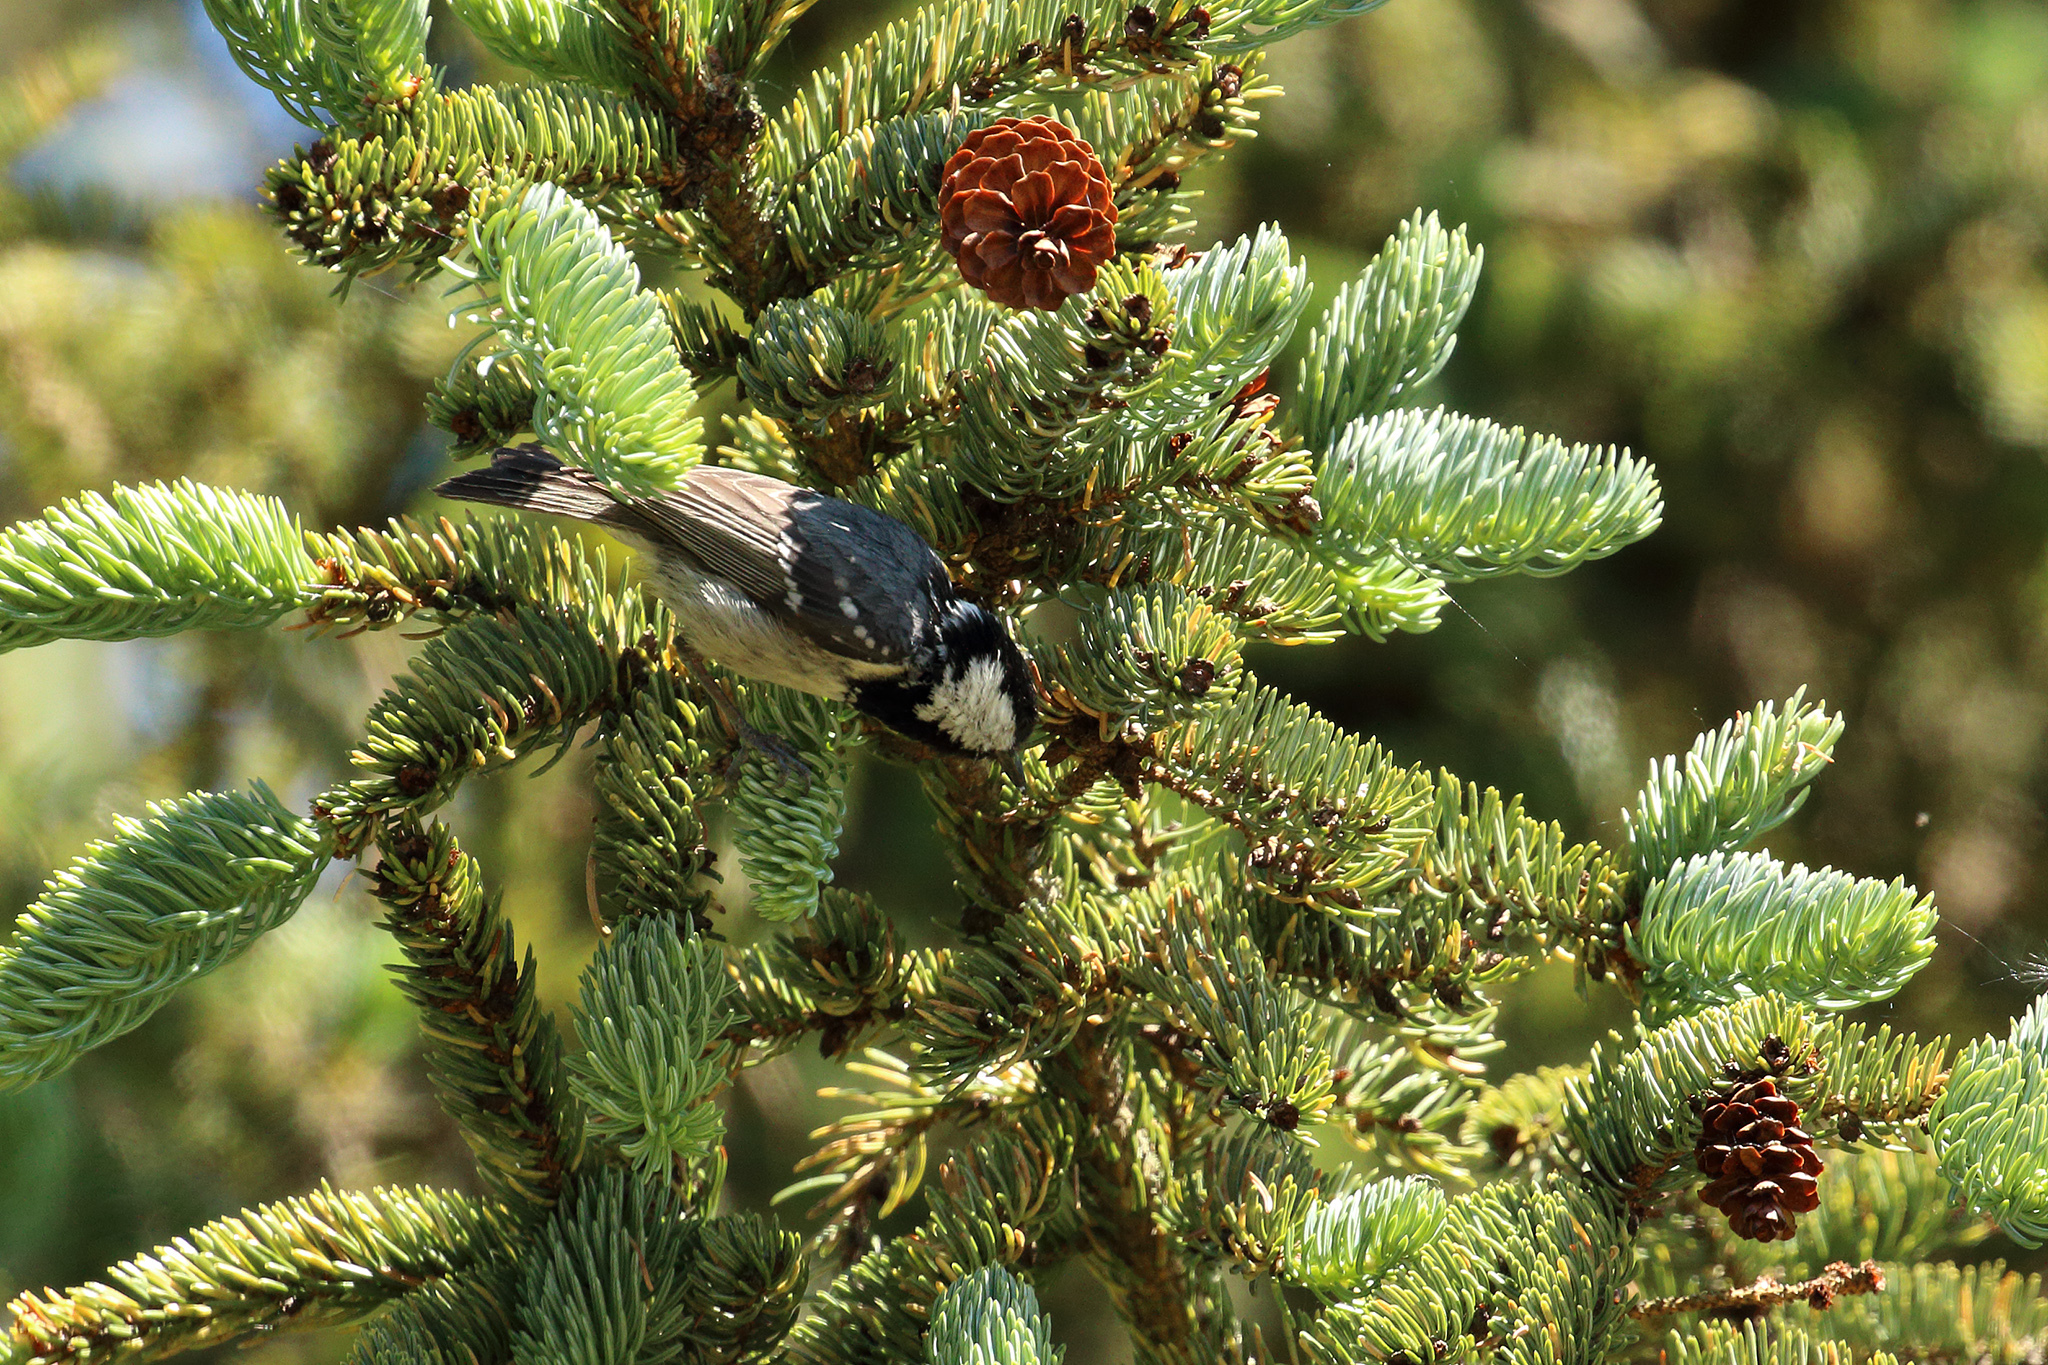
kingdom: Animalia
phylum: Chordata
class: Aves
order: Passeriformes
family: Paridae
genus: Periparus
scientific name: Periparus ater
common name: Coal tit
